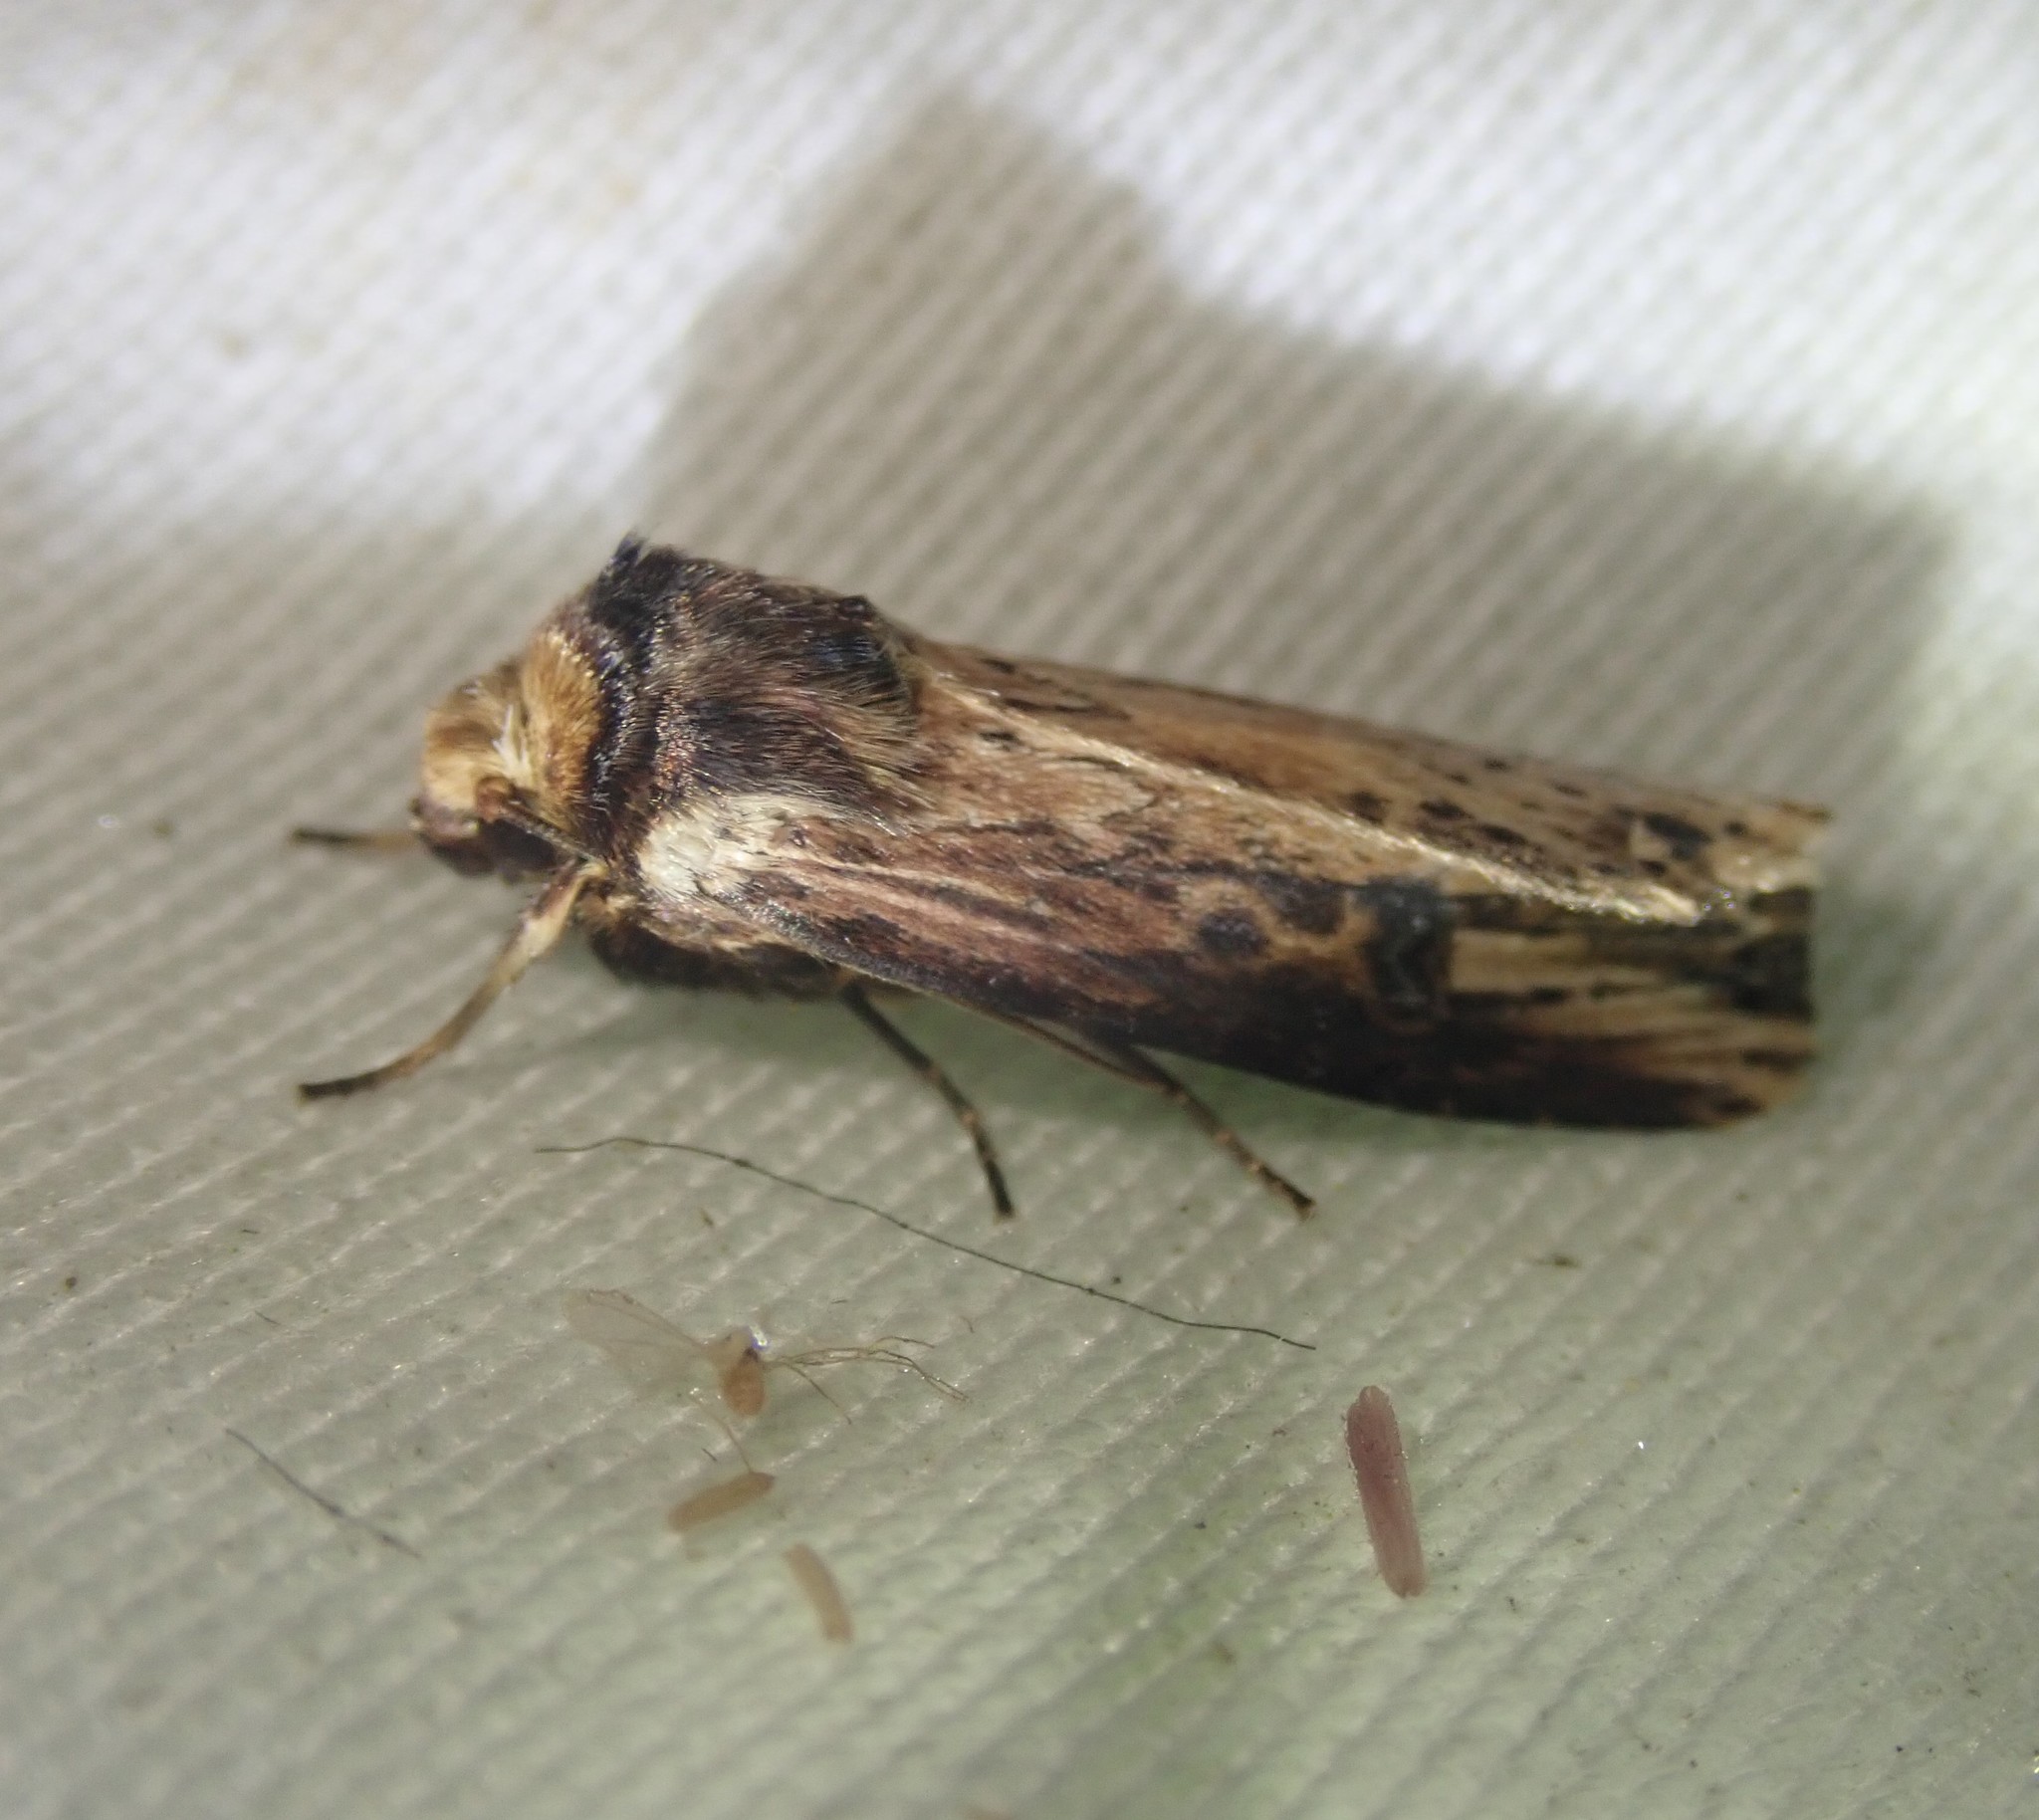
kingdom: Animalia
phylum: Arthropoda
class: Insecta
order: Lepidoptera
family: Noctuidae
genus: Axylia
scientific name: Axylia putris
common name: Flame
